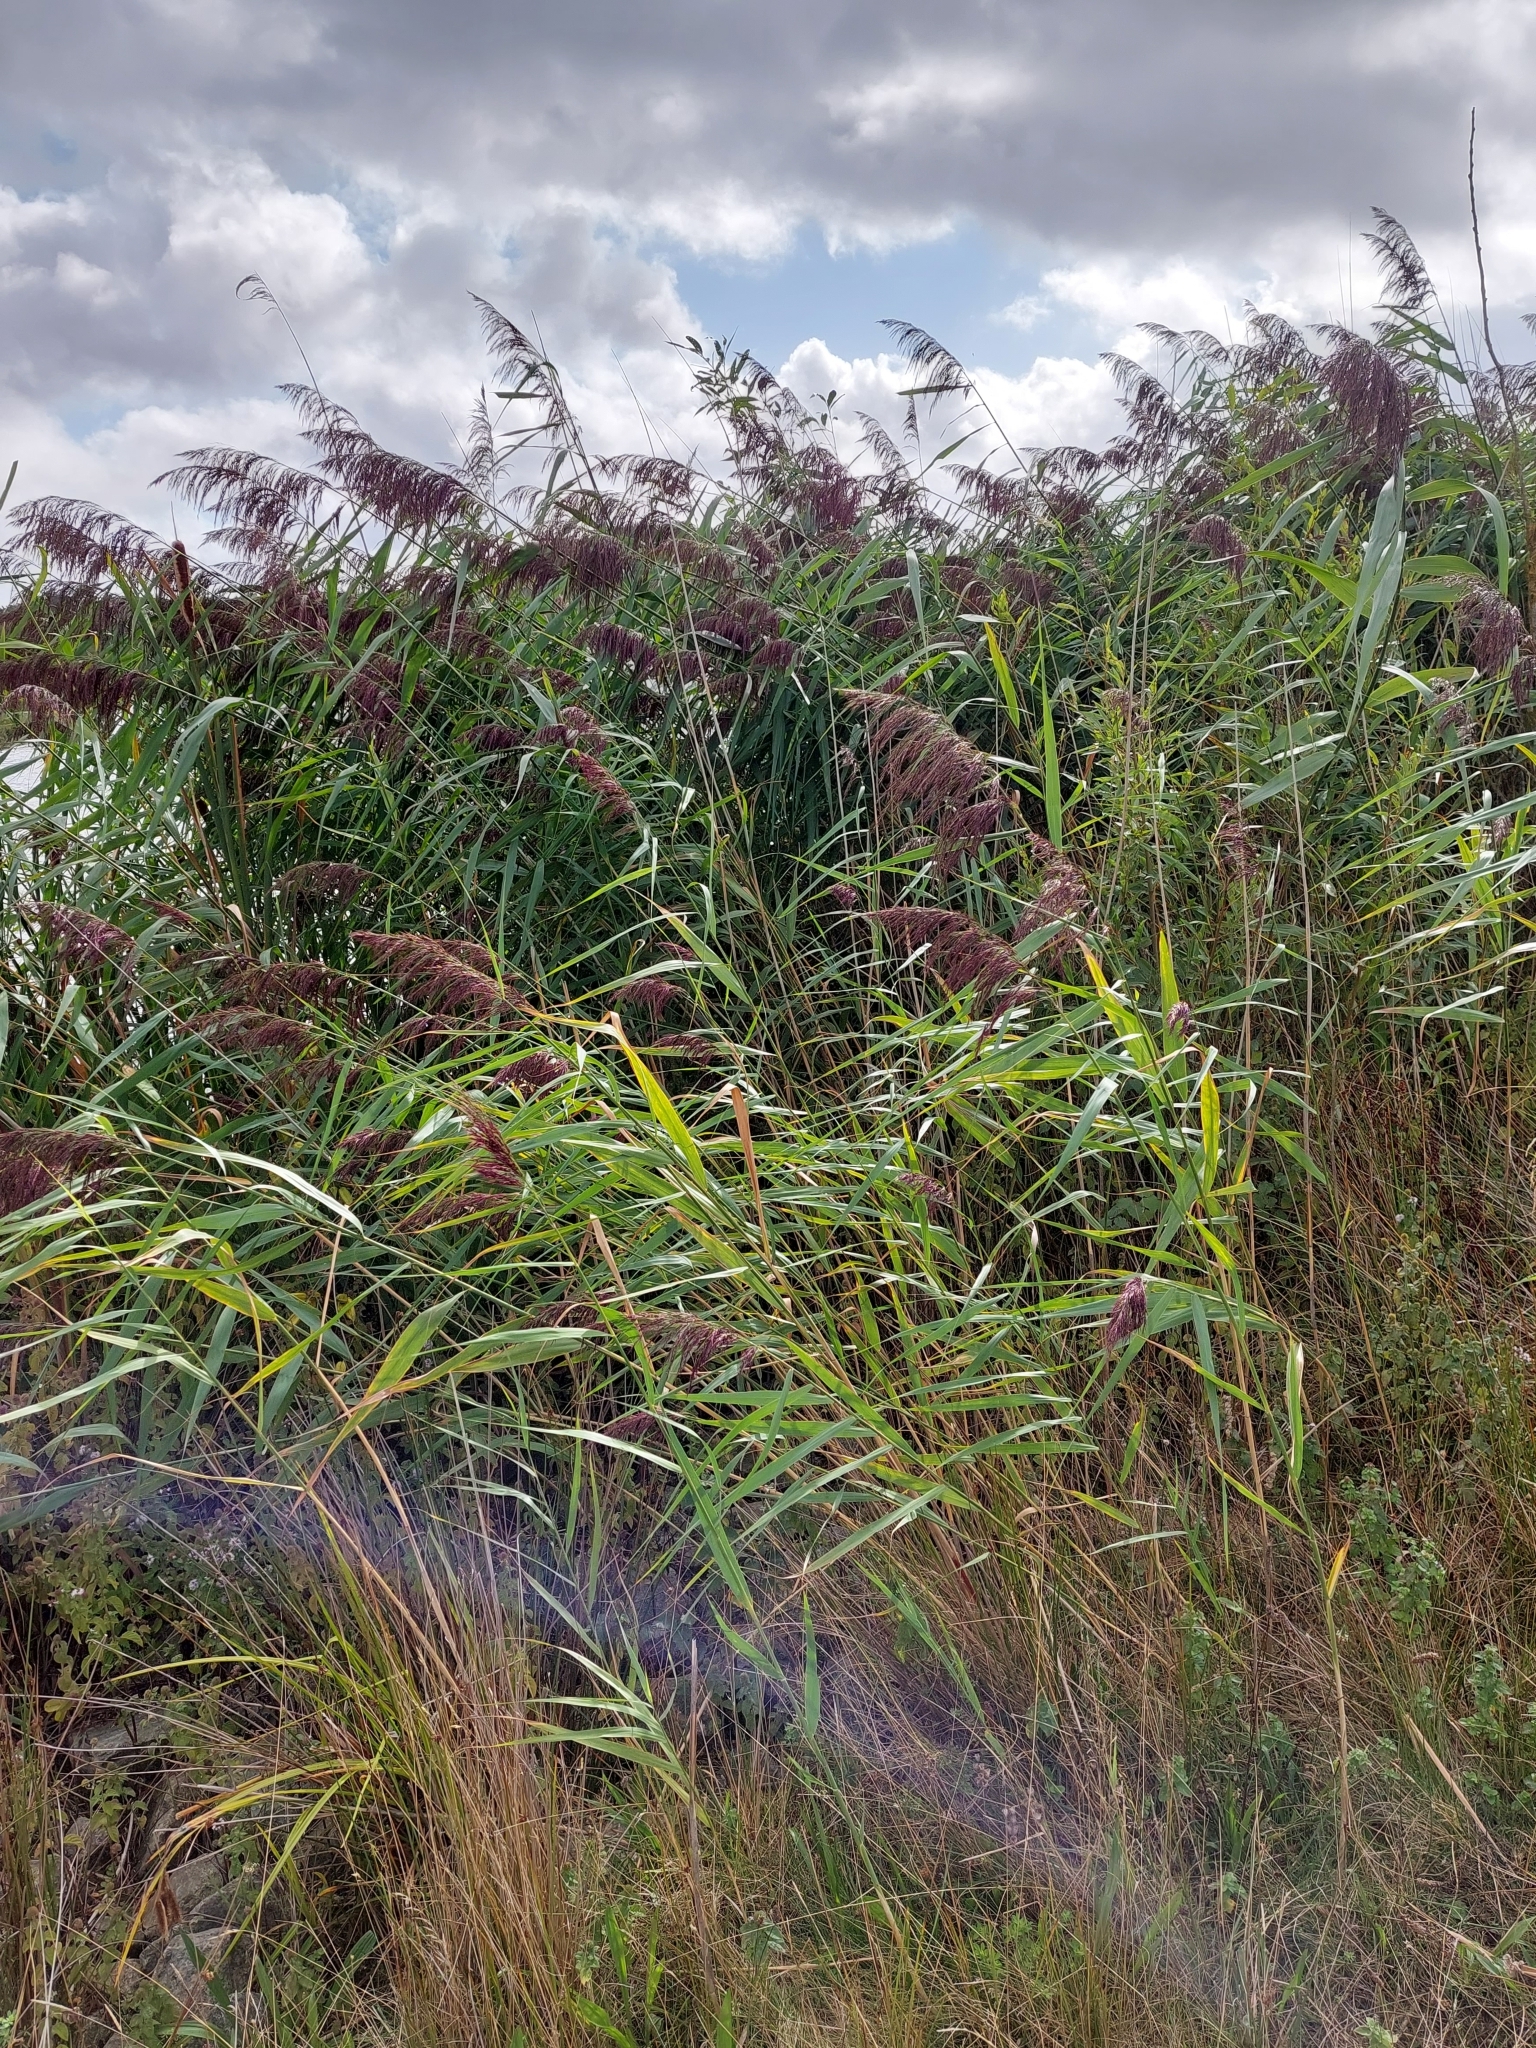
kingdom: Plantae
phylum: Tracheophyta
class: Liliopsida
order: Poales
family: Poaceae
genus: Phragmites
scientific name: Phragmites australis
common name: Common reed
